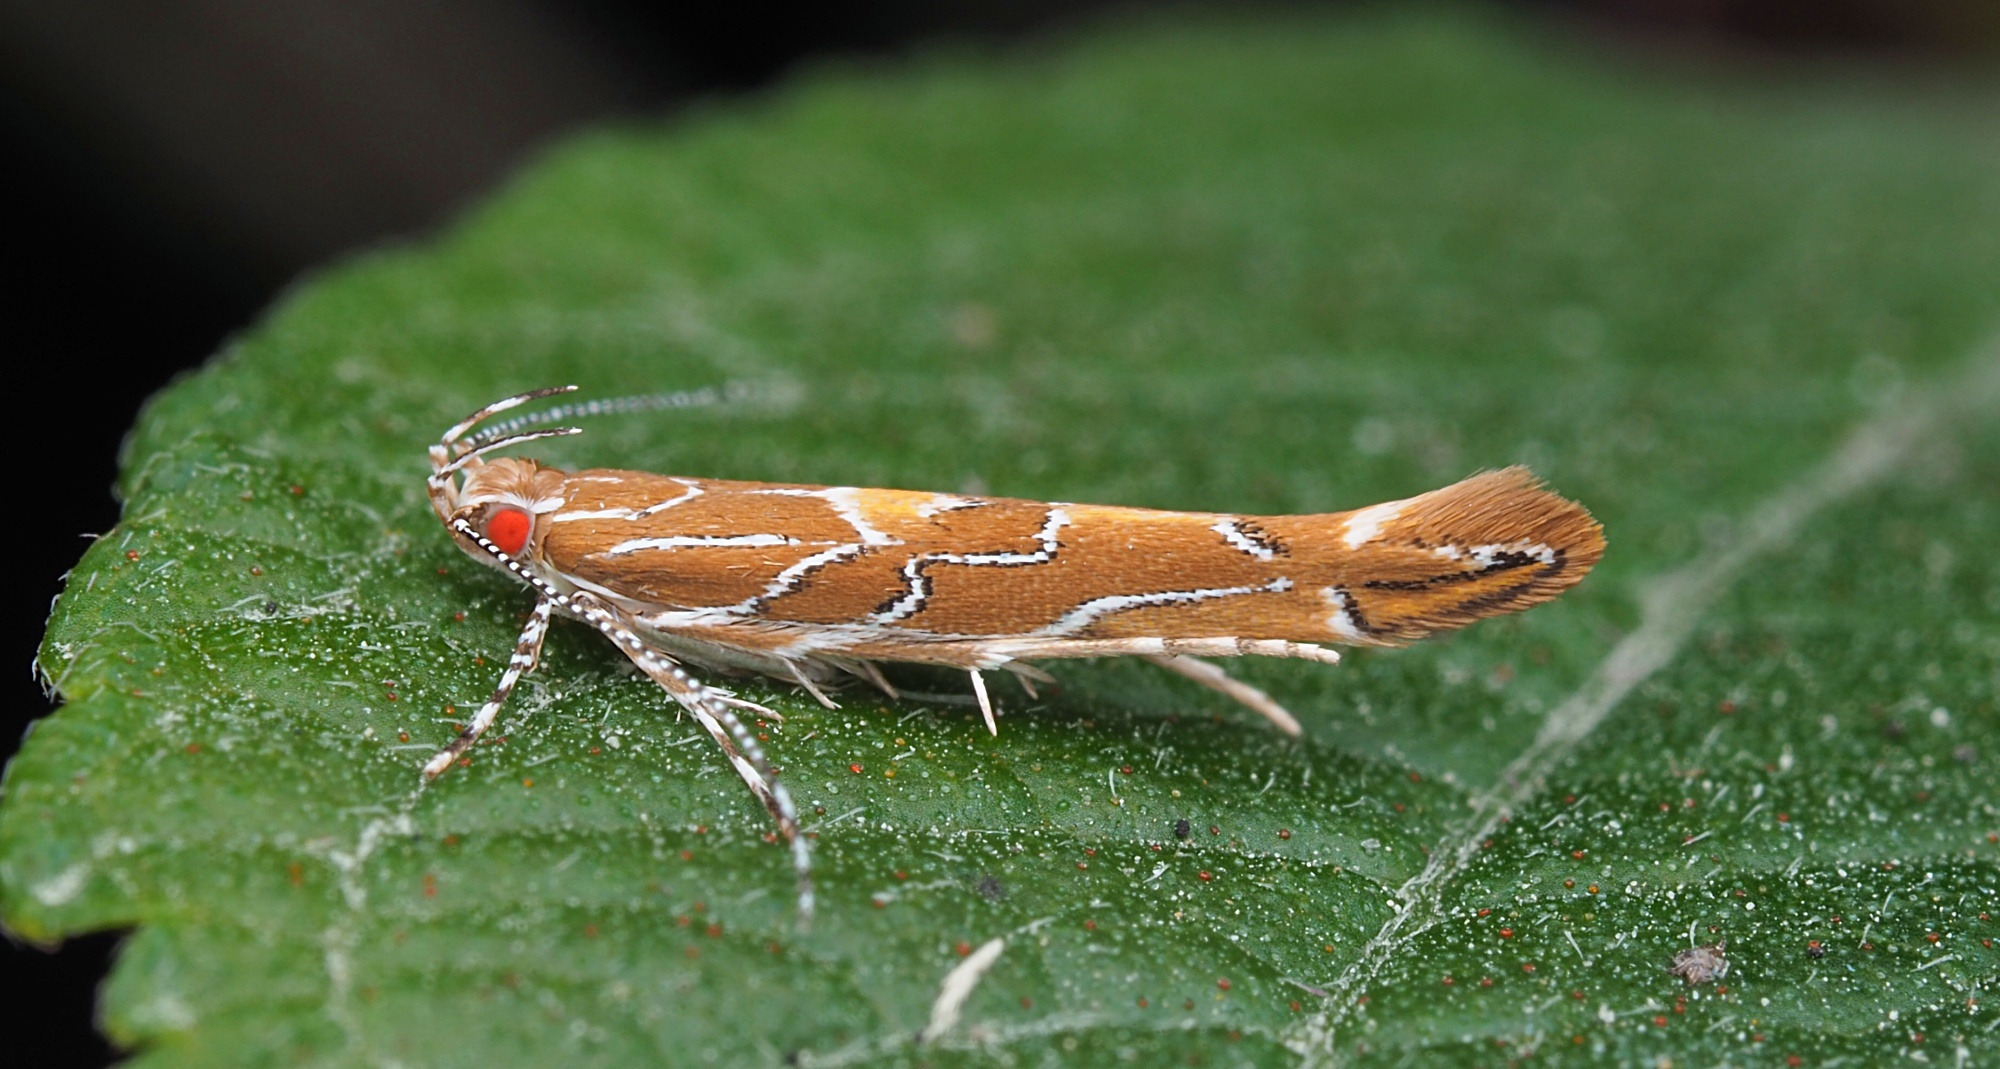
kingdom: Animalia
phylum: Arthropoda
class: Insecta
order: Lepidoptera
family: Cosmopterigidae
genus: Pyroderces
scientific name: Pyroderces apparitella
